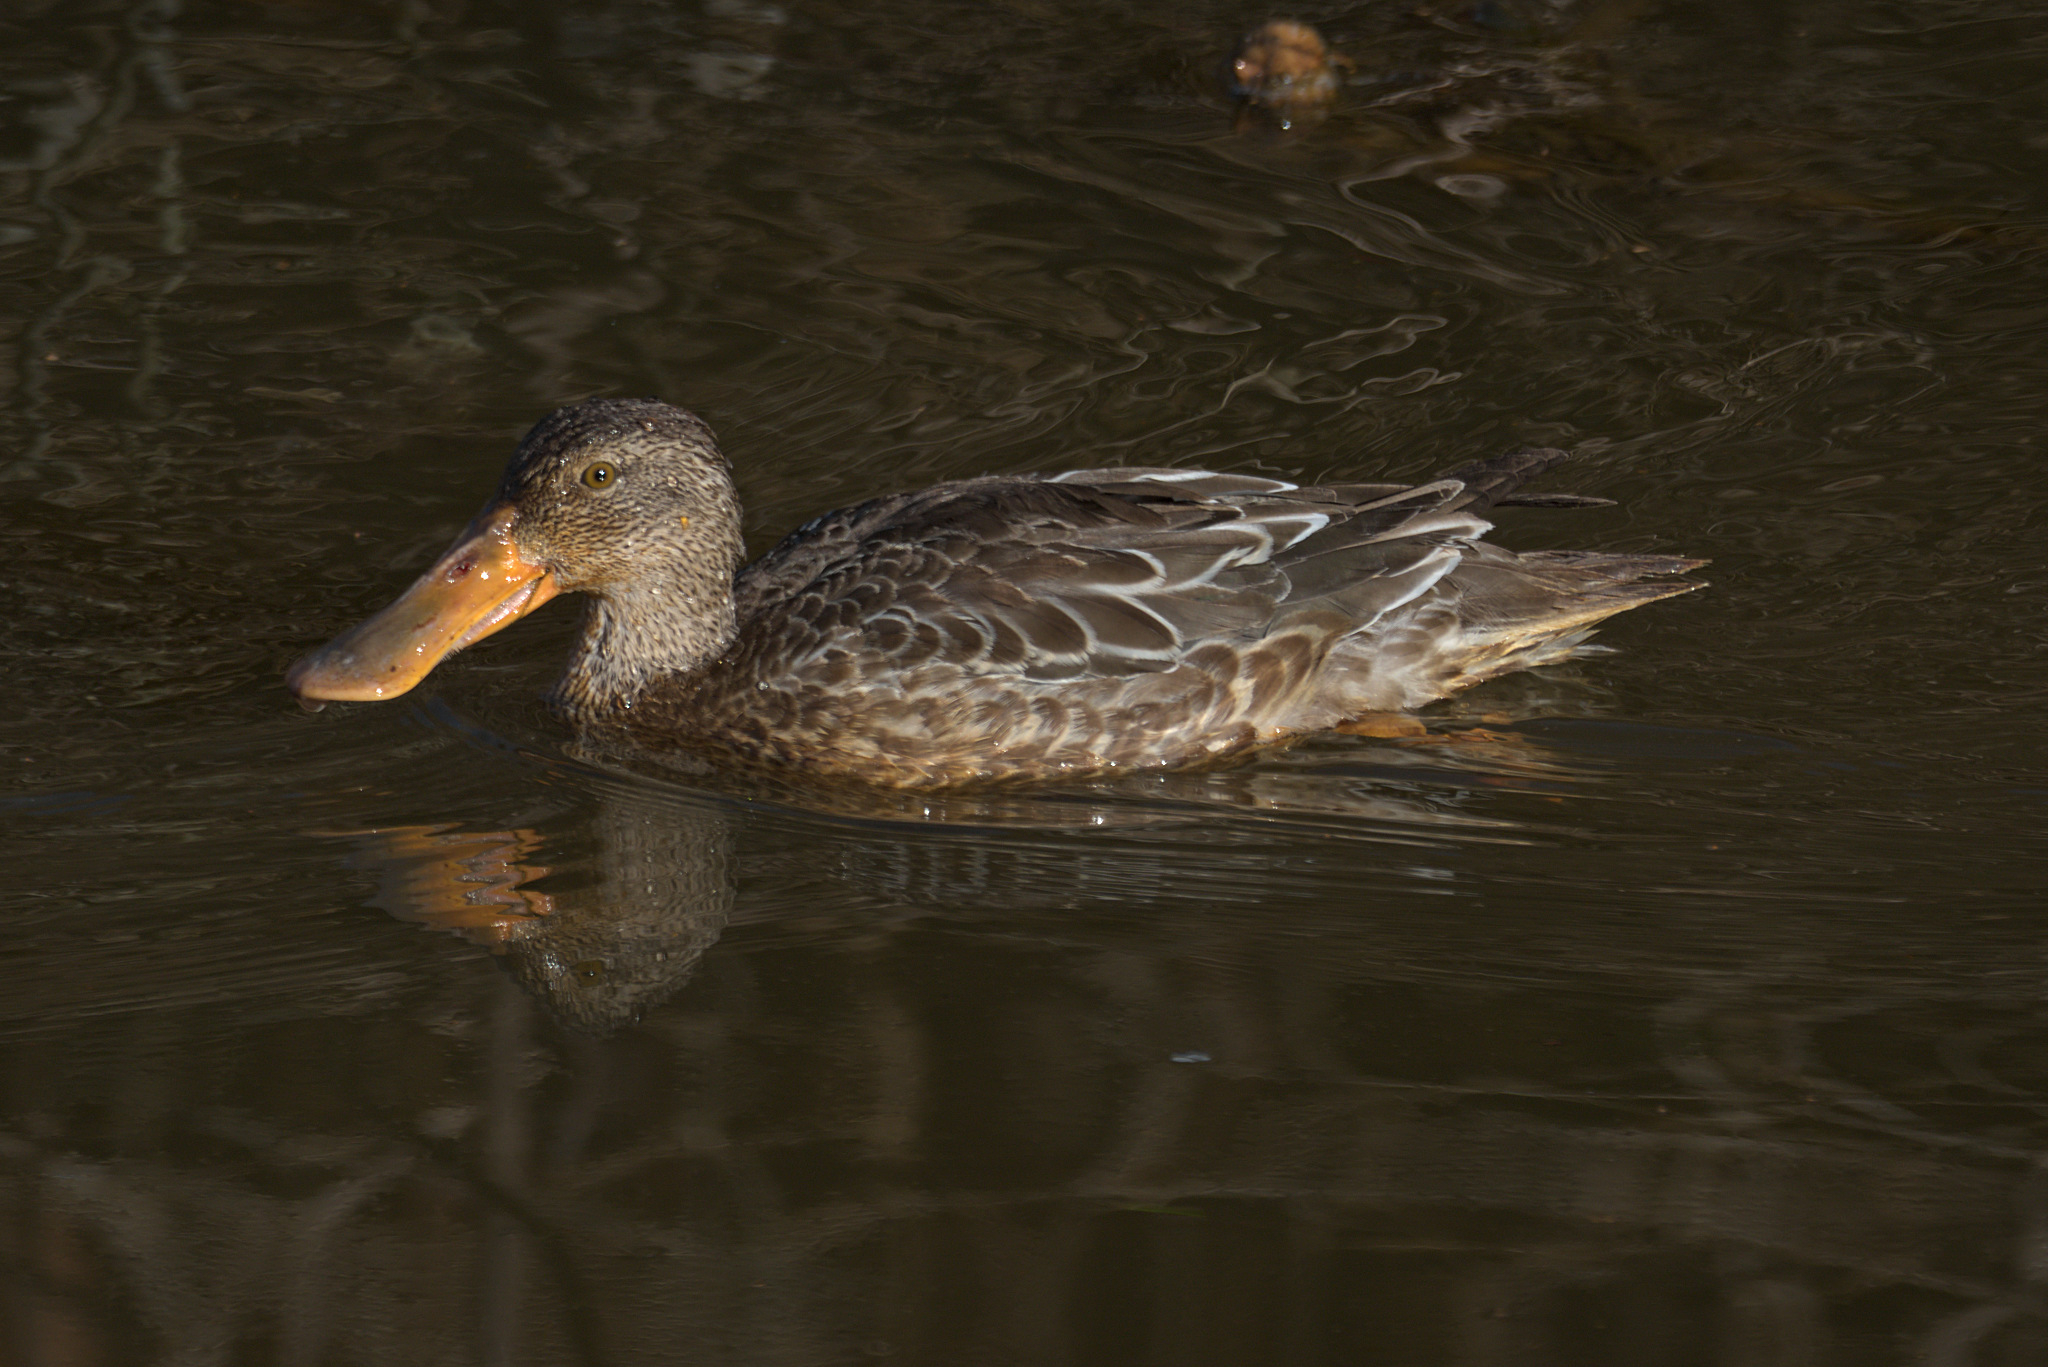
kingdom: Animalia
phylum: Chordata
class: Aves
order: Anseriformes
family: Anatidae
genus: Spatula
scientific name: Spatula clypeata
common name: Northern shoveler
